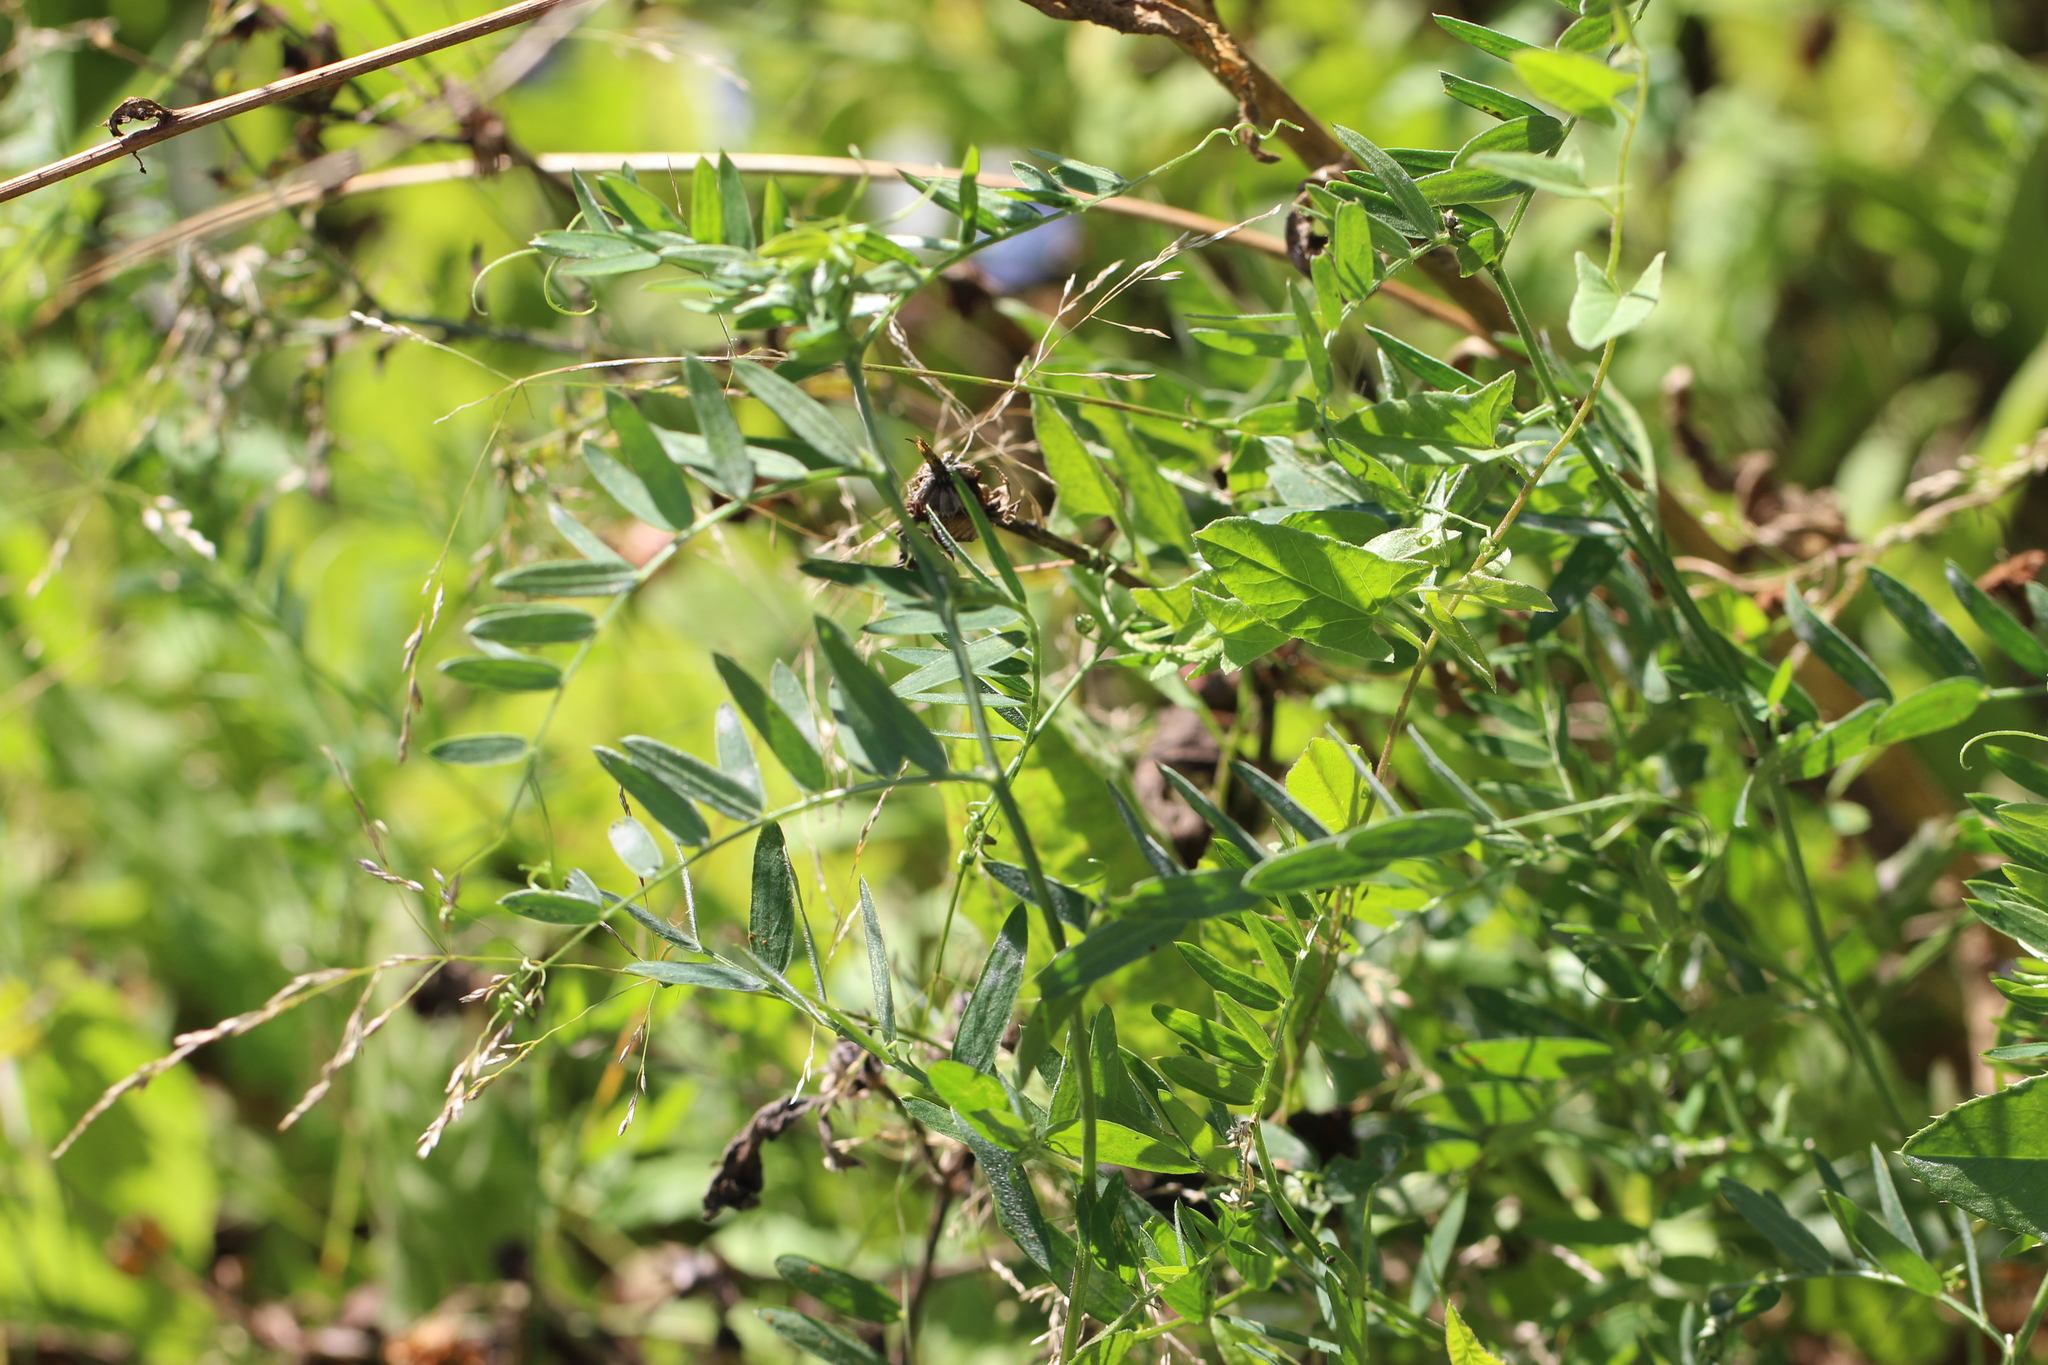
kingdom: Plantae
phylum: Tracheophyta
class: Magnoliopsida
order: Fabales
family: Fabaceae
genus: Vicia
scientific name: Vicia cracca
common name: Bird vetch
